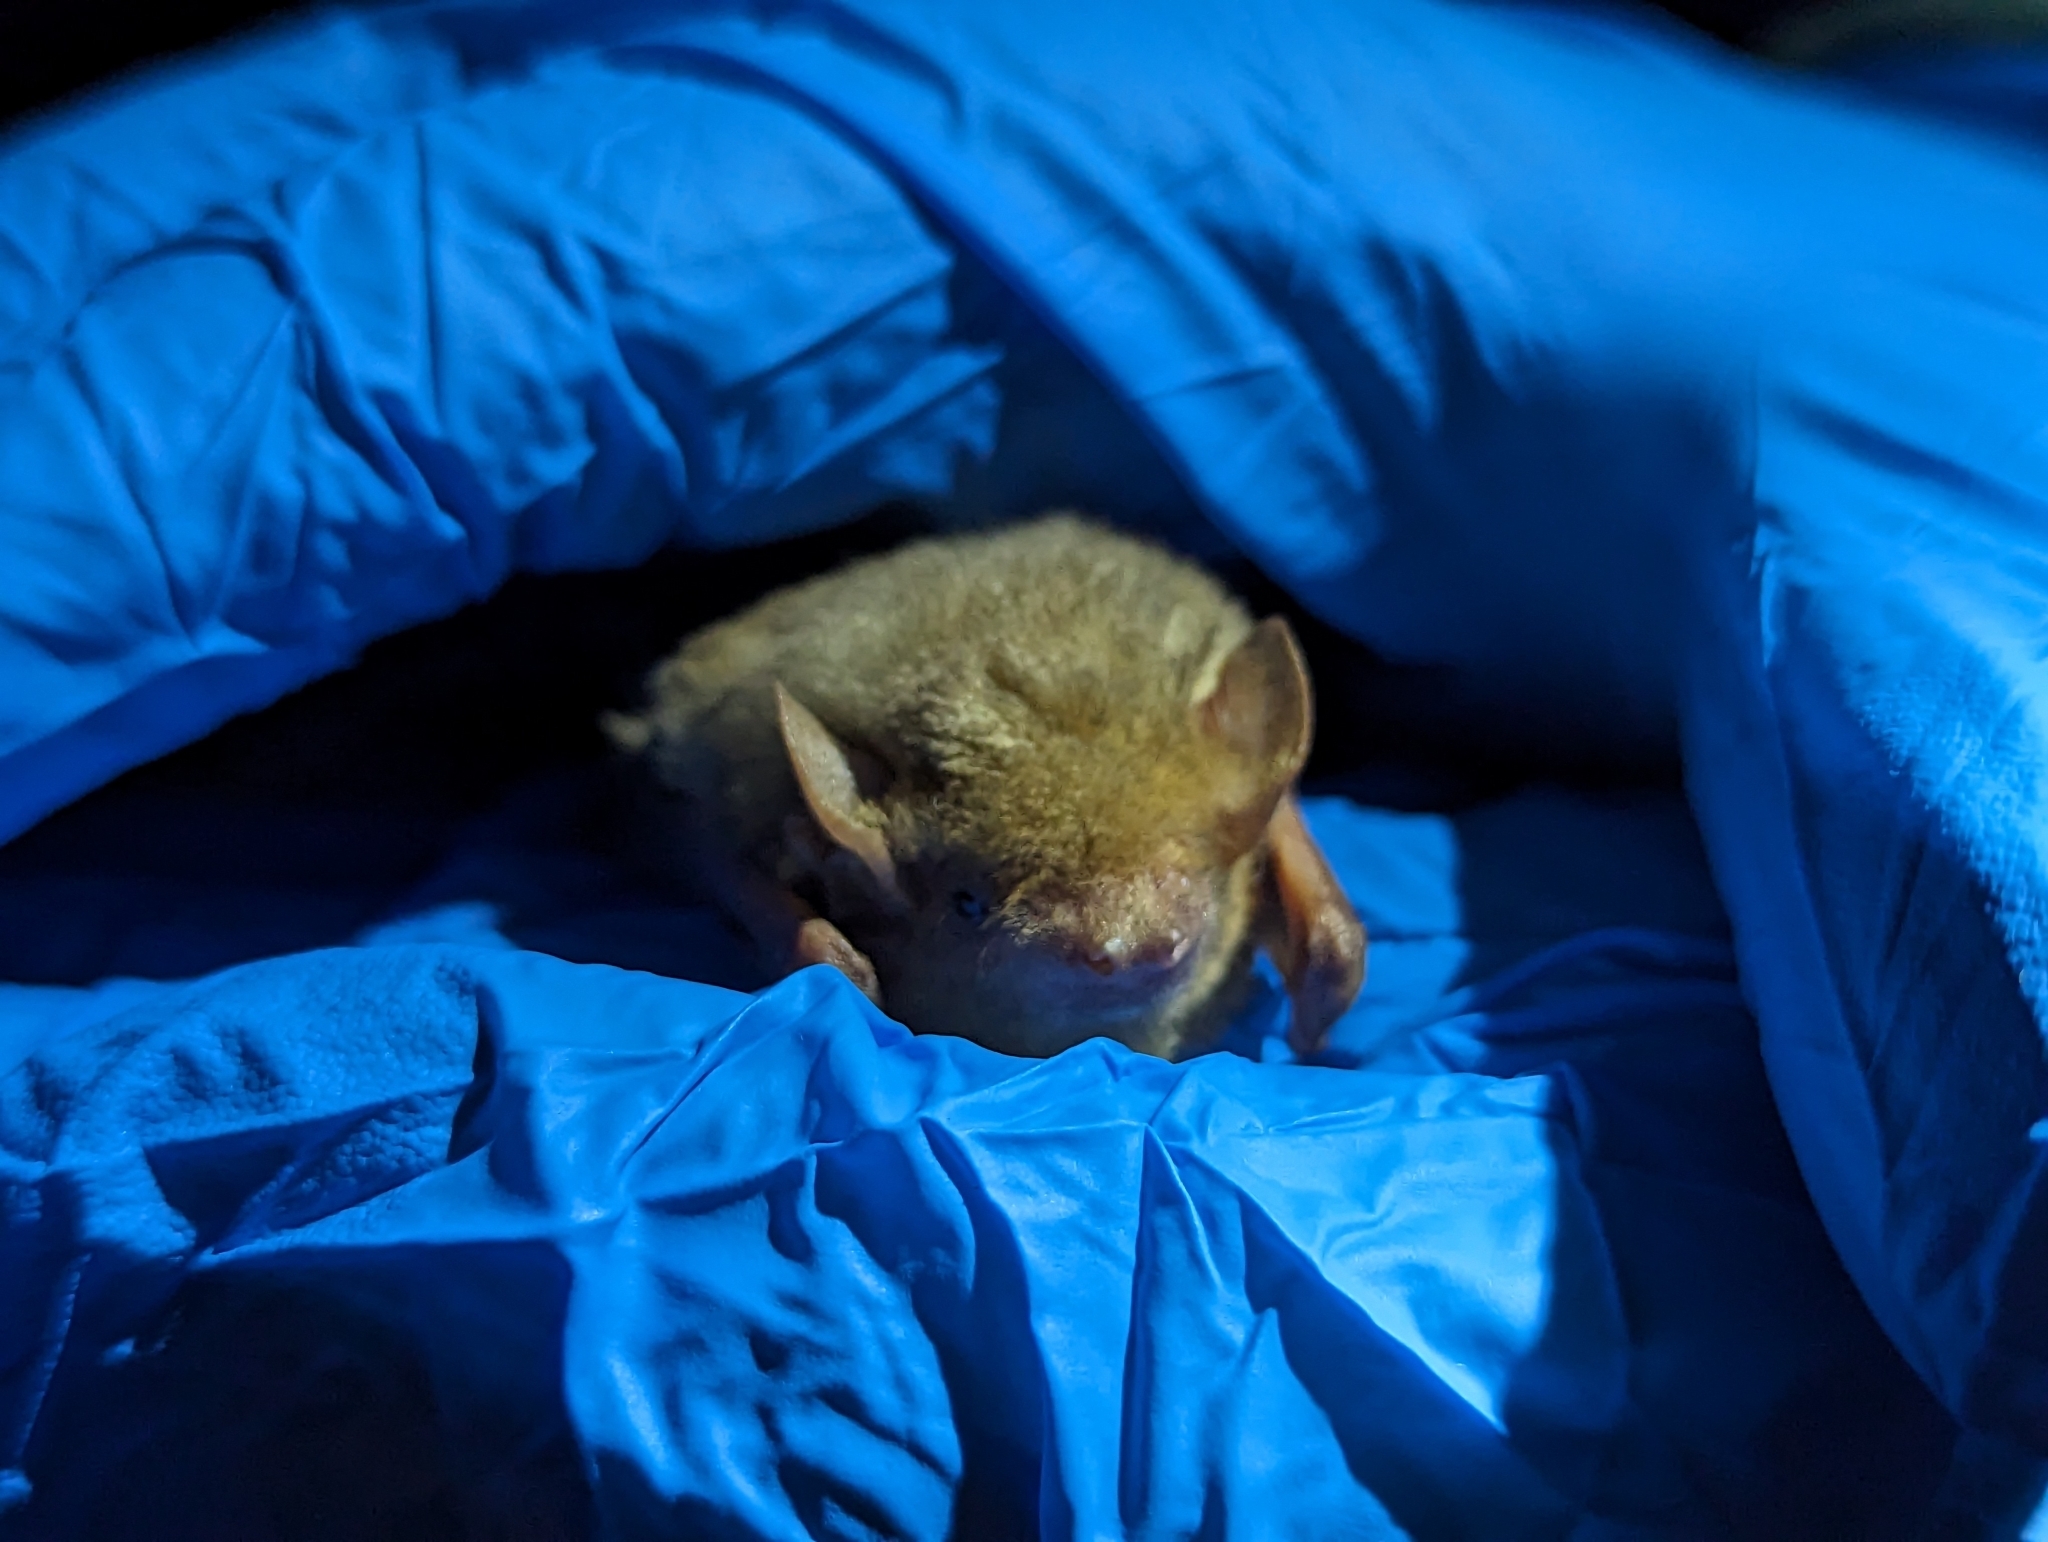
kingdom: Animalia
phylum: Chordata
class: Mammalia
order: Chiroptera
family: Vespertilionidae
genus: Dasypterus
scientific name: Dasypterus xanthinus
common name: Western yellow bat
